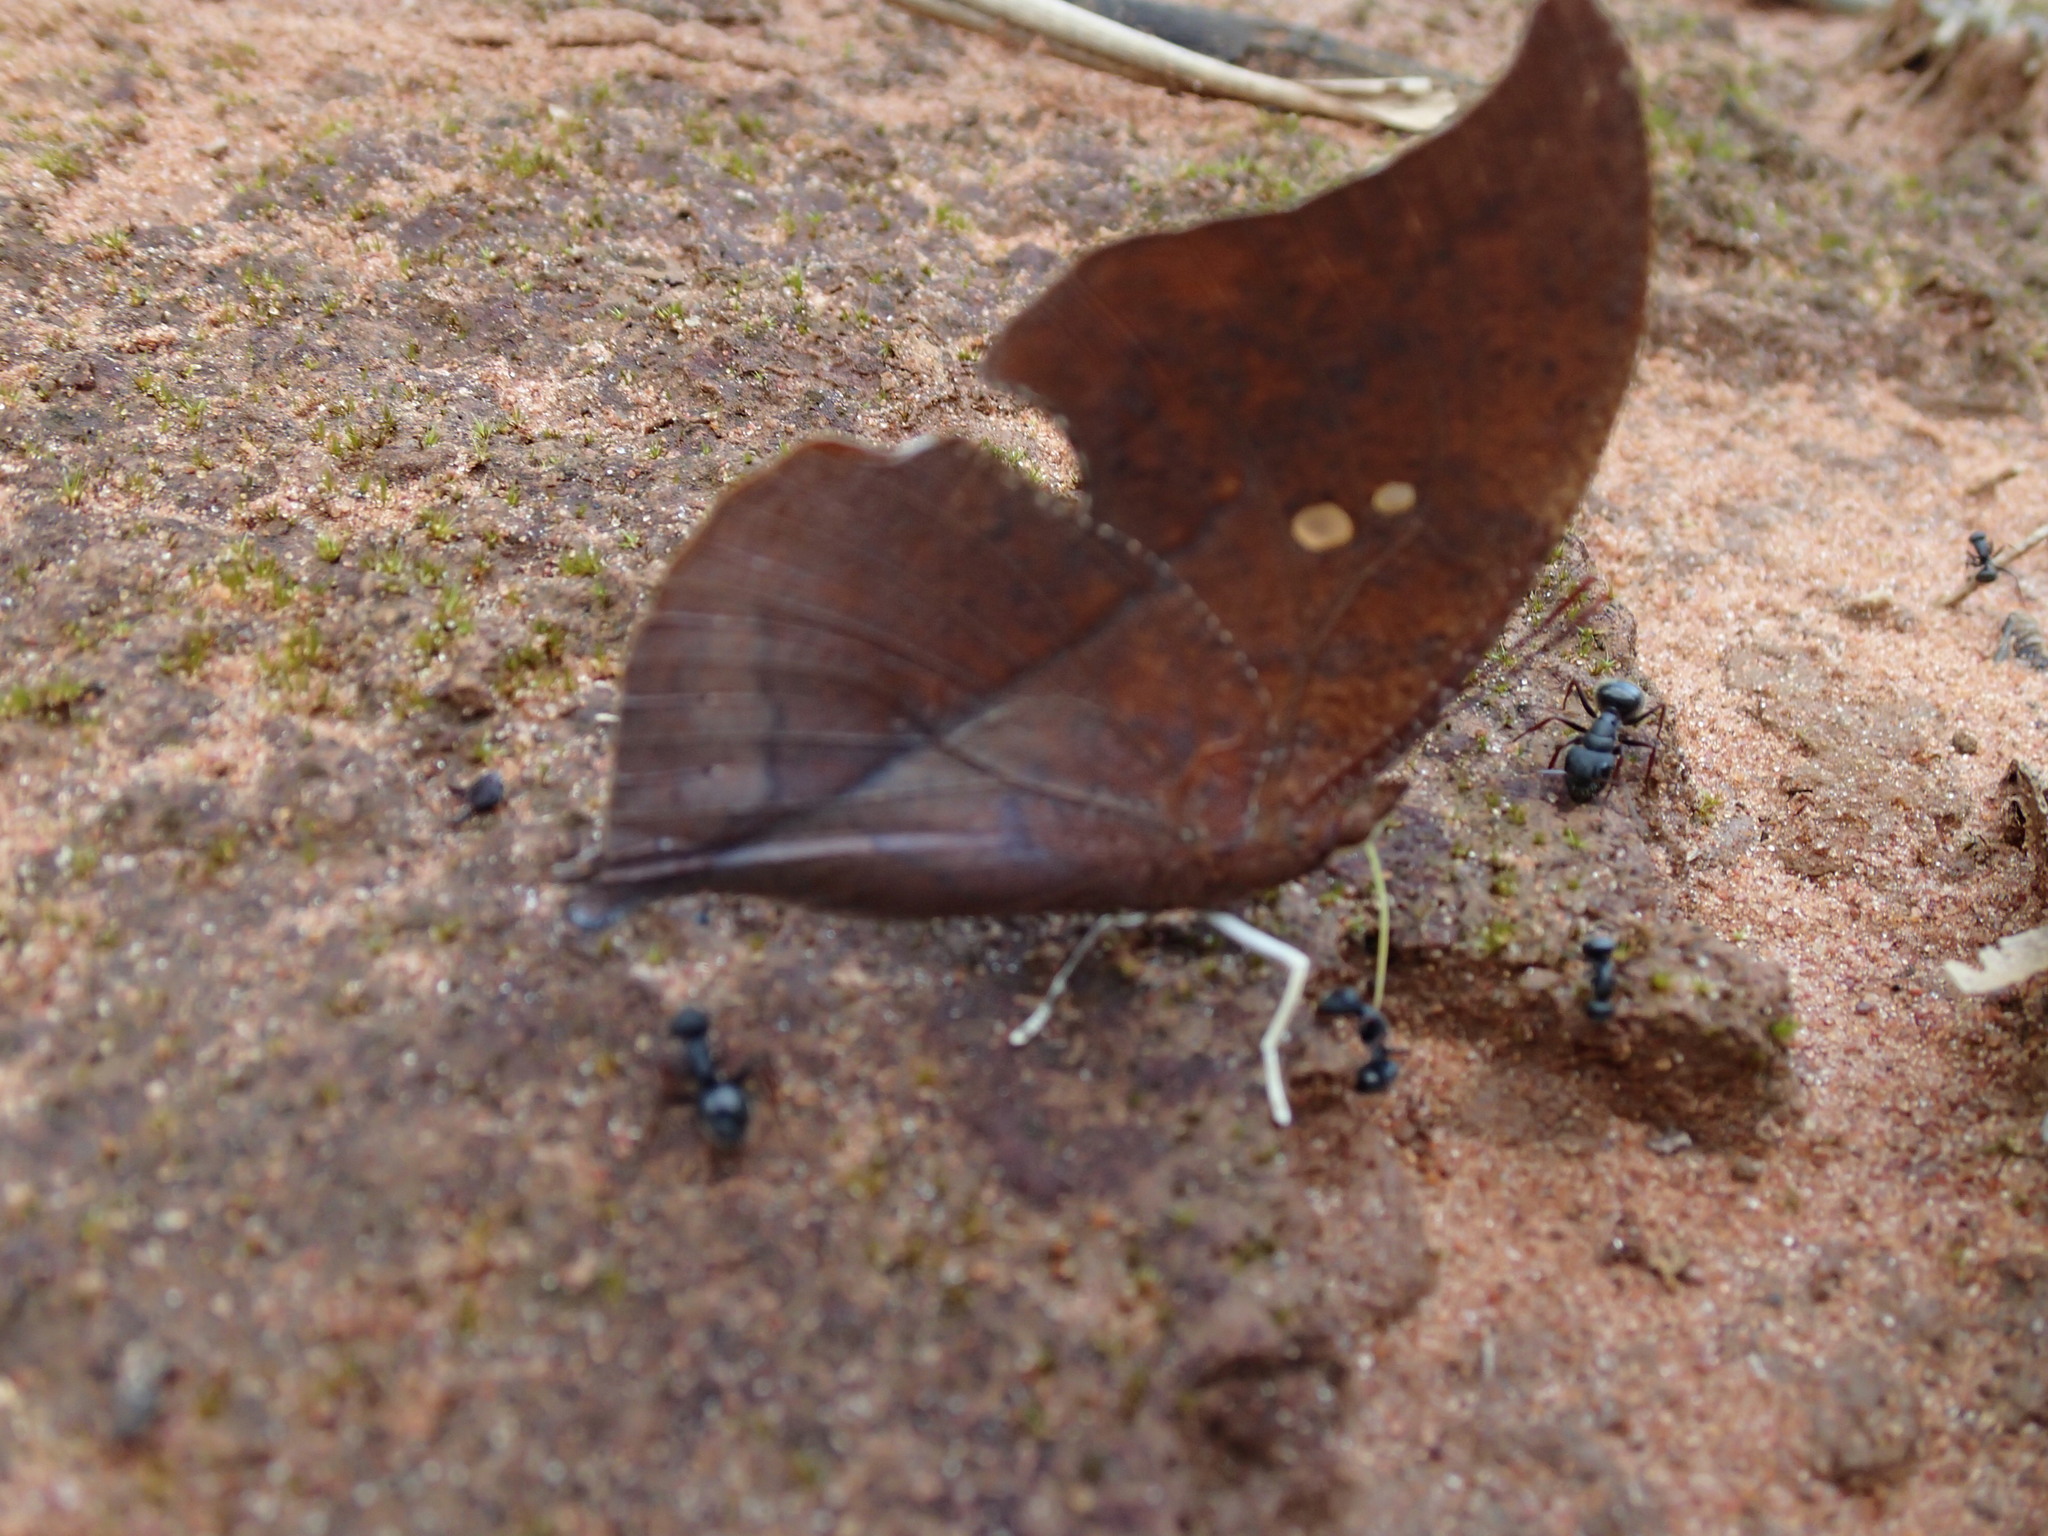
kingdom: Animalia
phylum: Arthropoda
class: Insecta
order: Lepidoptera
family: Nymphalidae
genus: Zaretis
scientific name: Zaretis itys
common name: Skeletonized leafwing
